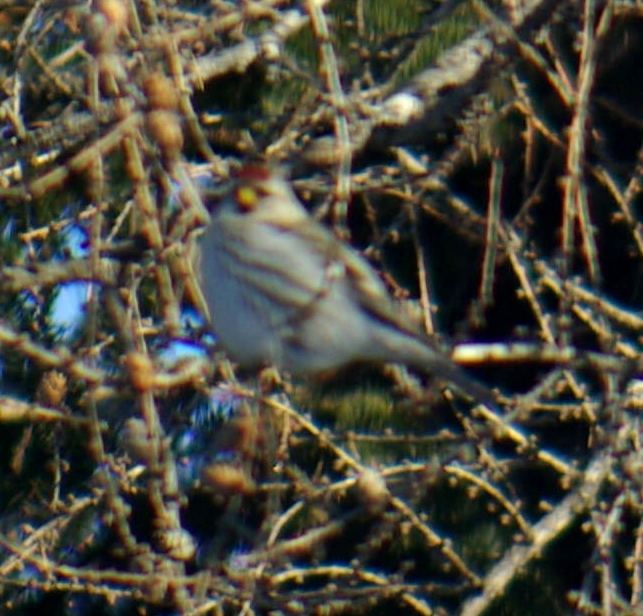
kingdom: Animalia
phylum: Chordata
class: Aves
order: Passeriformes
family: Fringillidae
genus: Acanthis
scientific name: Acanthis flammea
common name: Common redpoll
